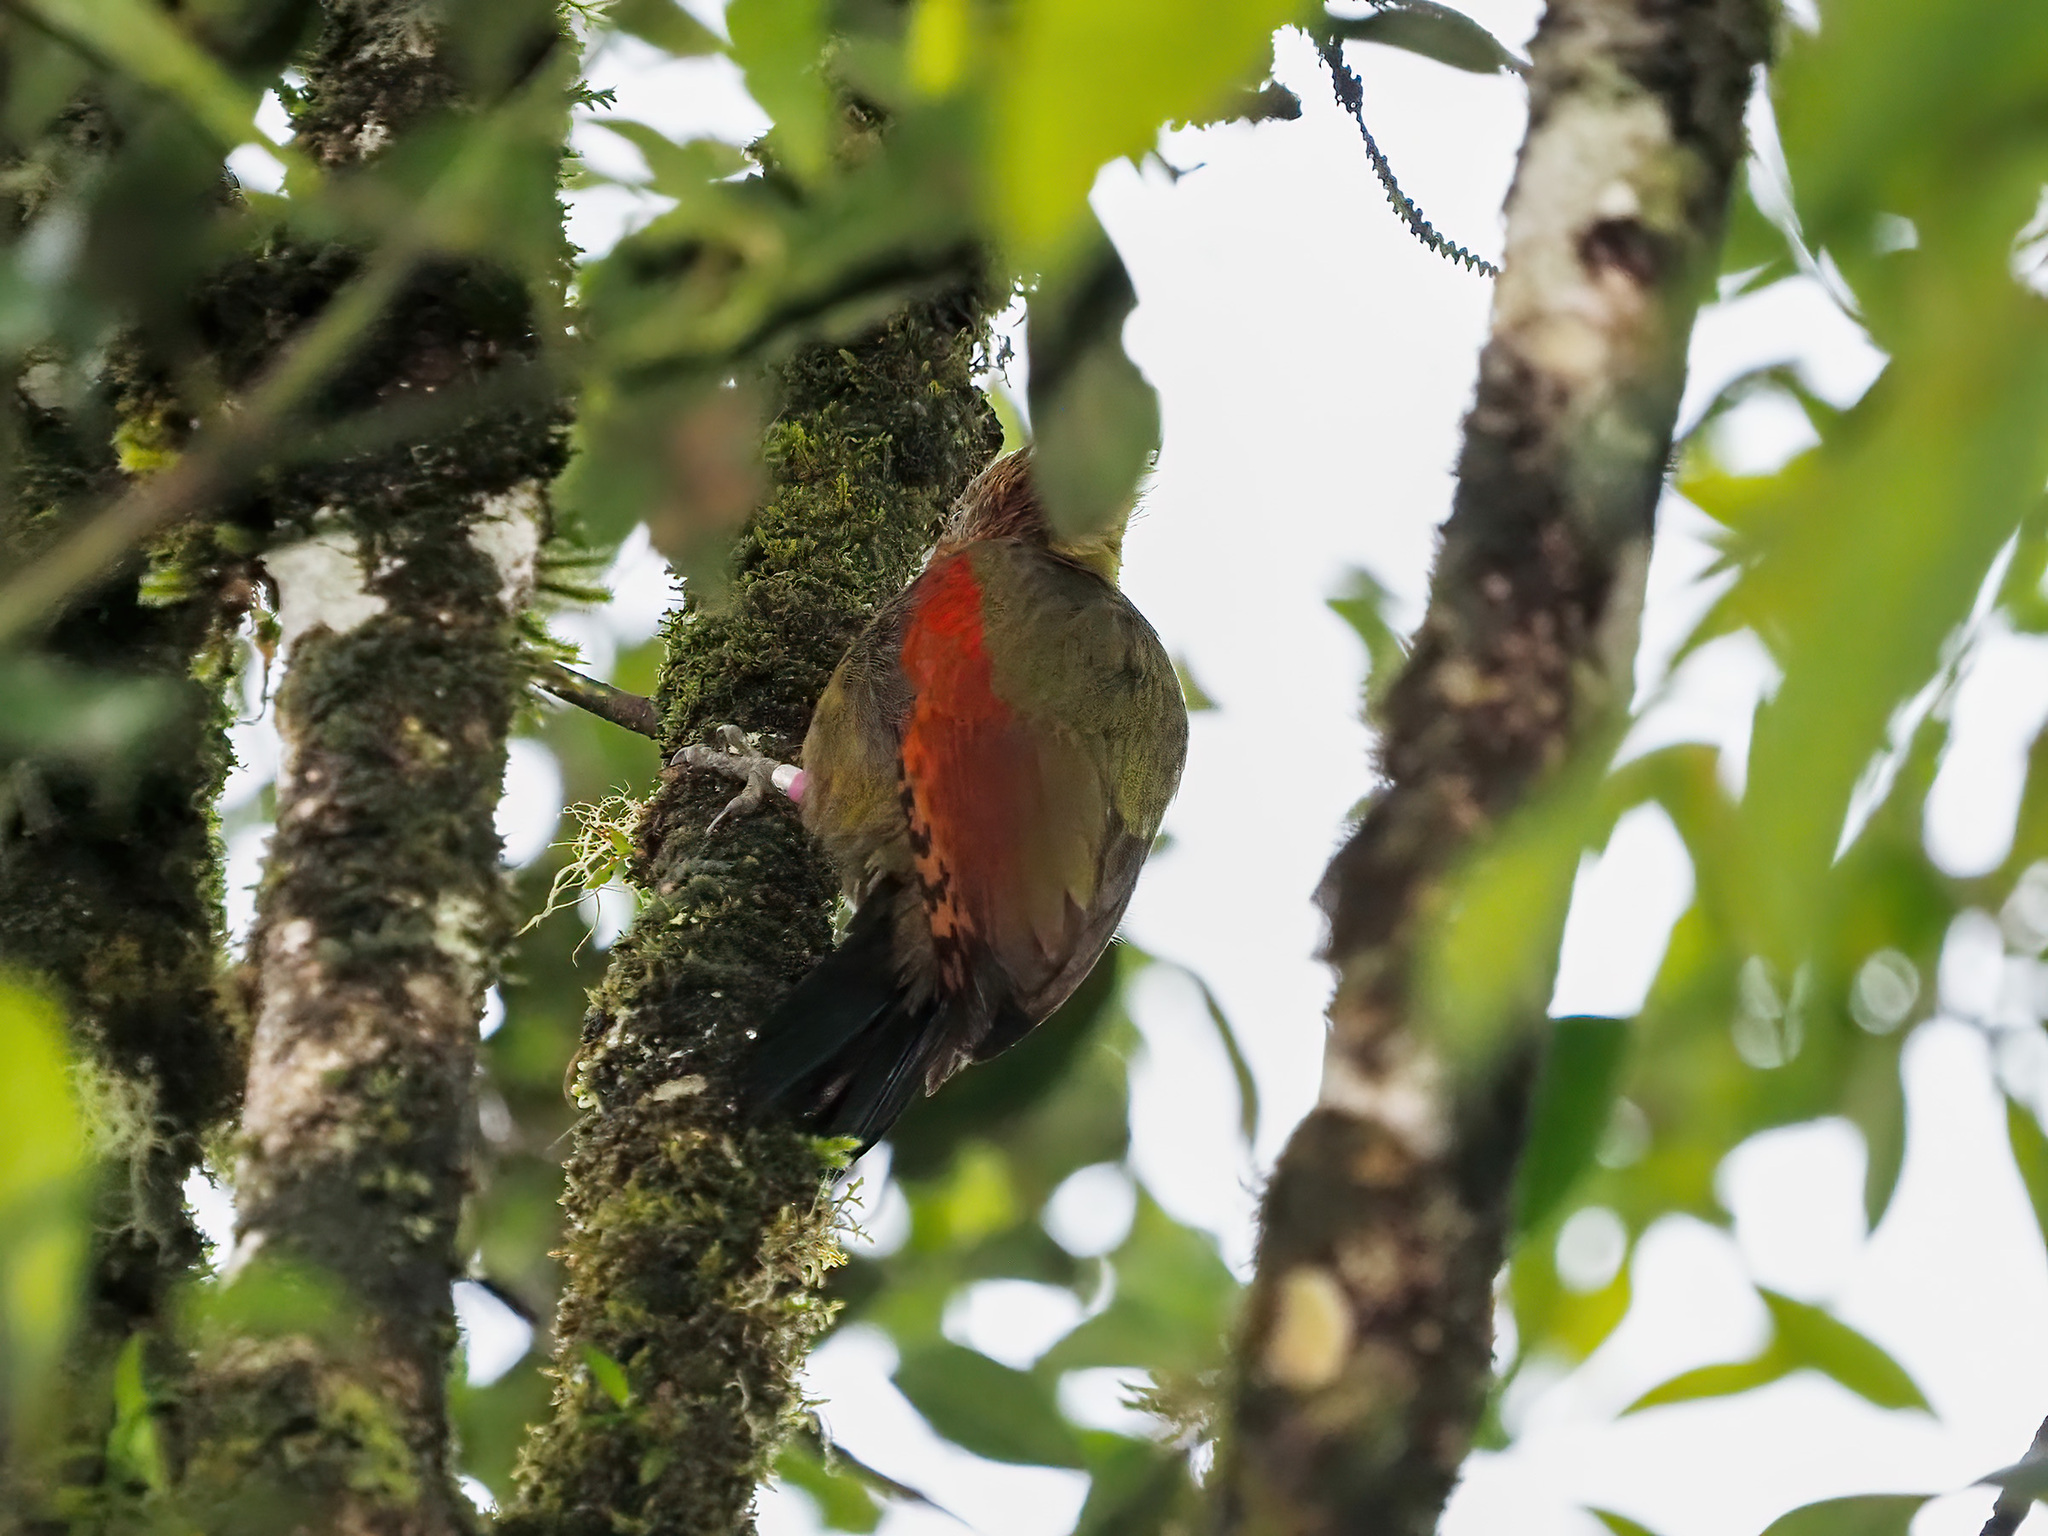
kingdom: Animalia
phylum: Chordata
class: Aves
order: Piciformes
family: Picidae
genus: Chrysophlegma
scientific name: Chrysophlegma mentale
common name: Checker-throated woodpecker
